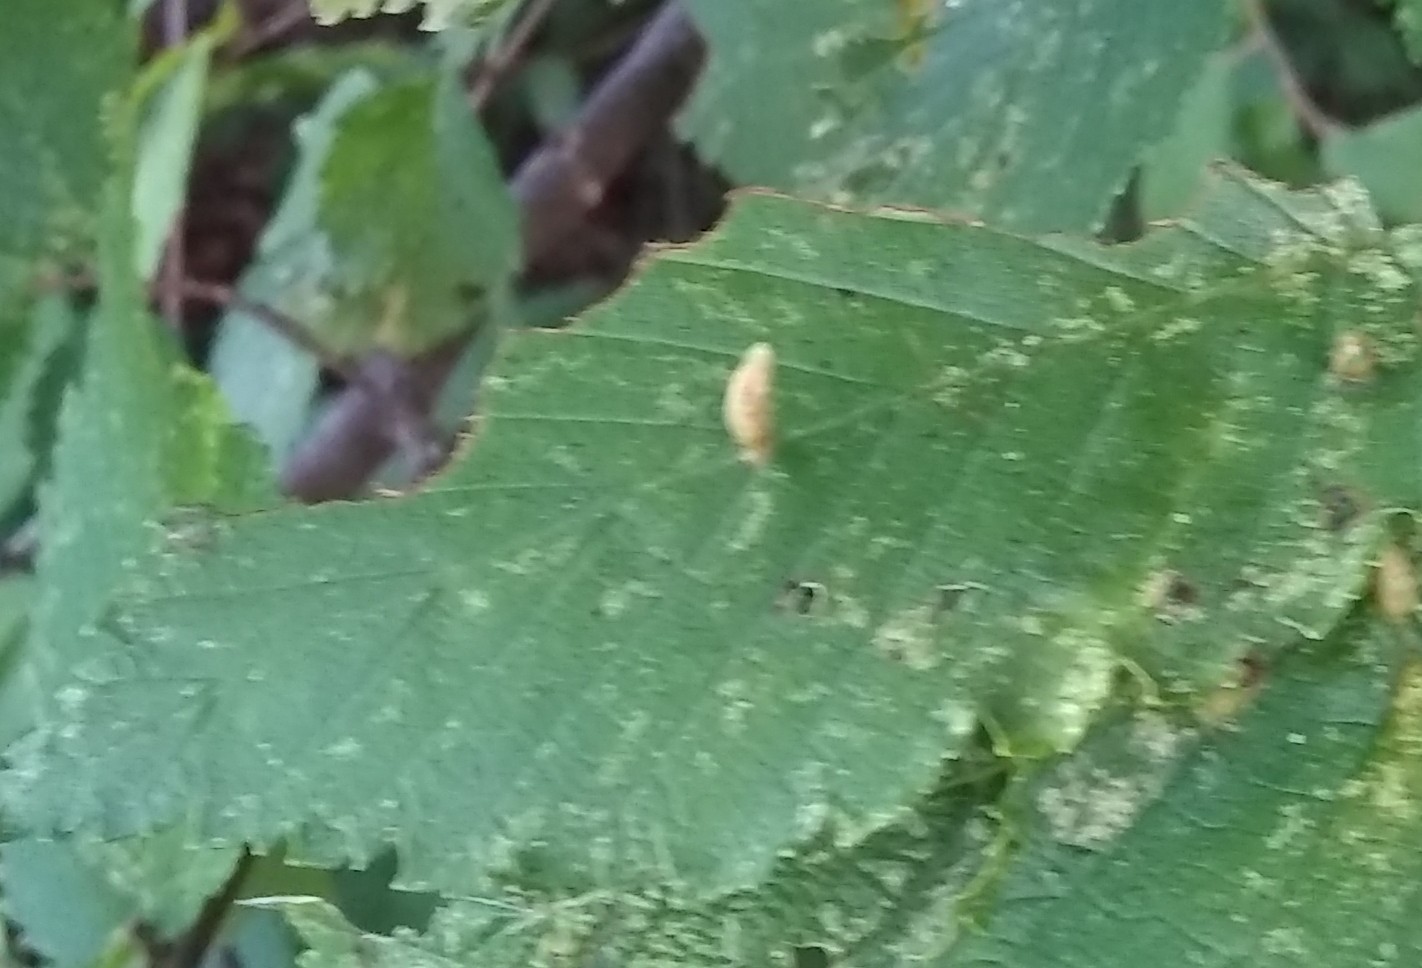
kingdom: Animalia
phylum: Arthropoda
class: Arachnida
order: Trombidiformes
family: Eriophyidae
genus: Aceria
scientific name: Aceria
